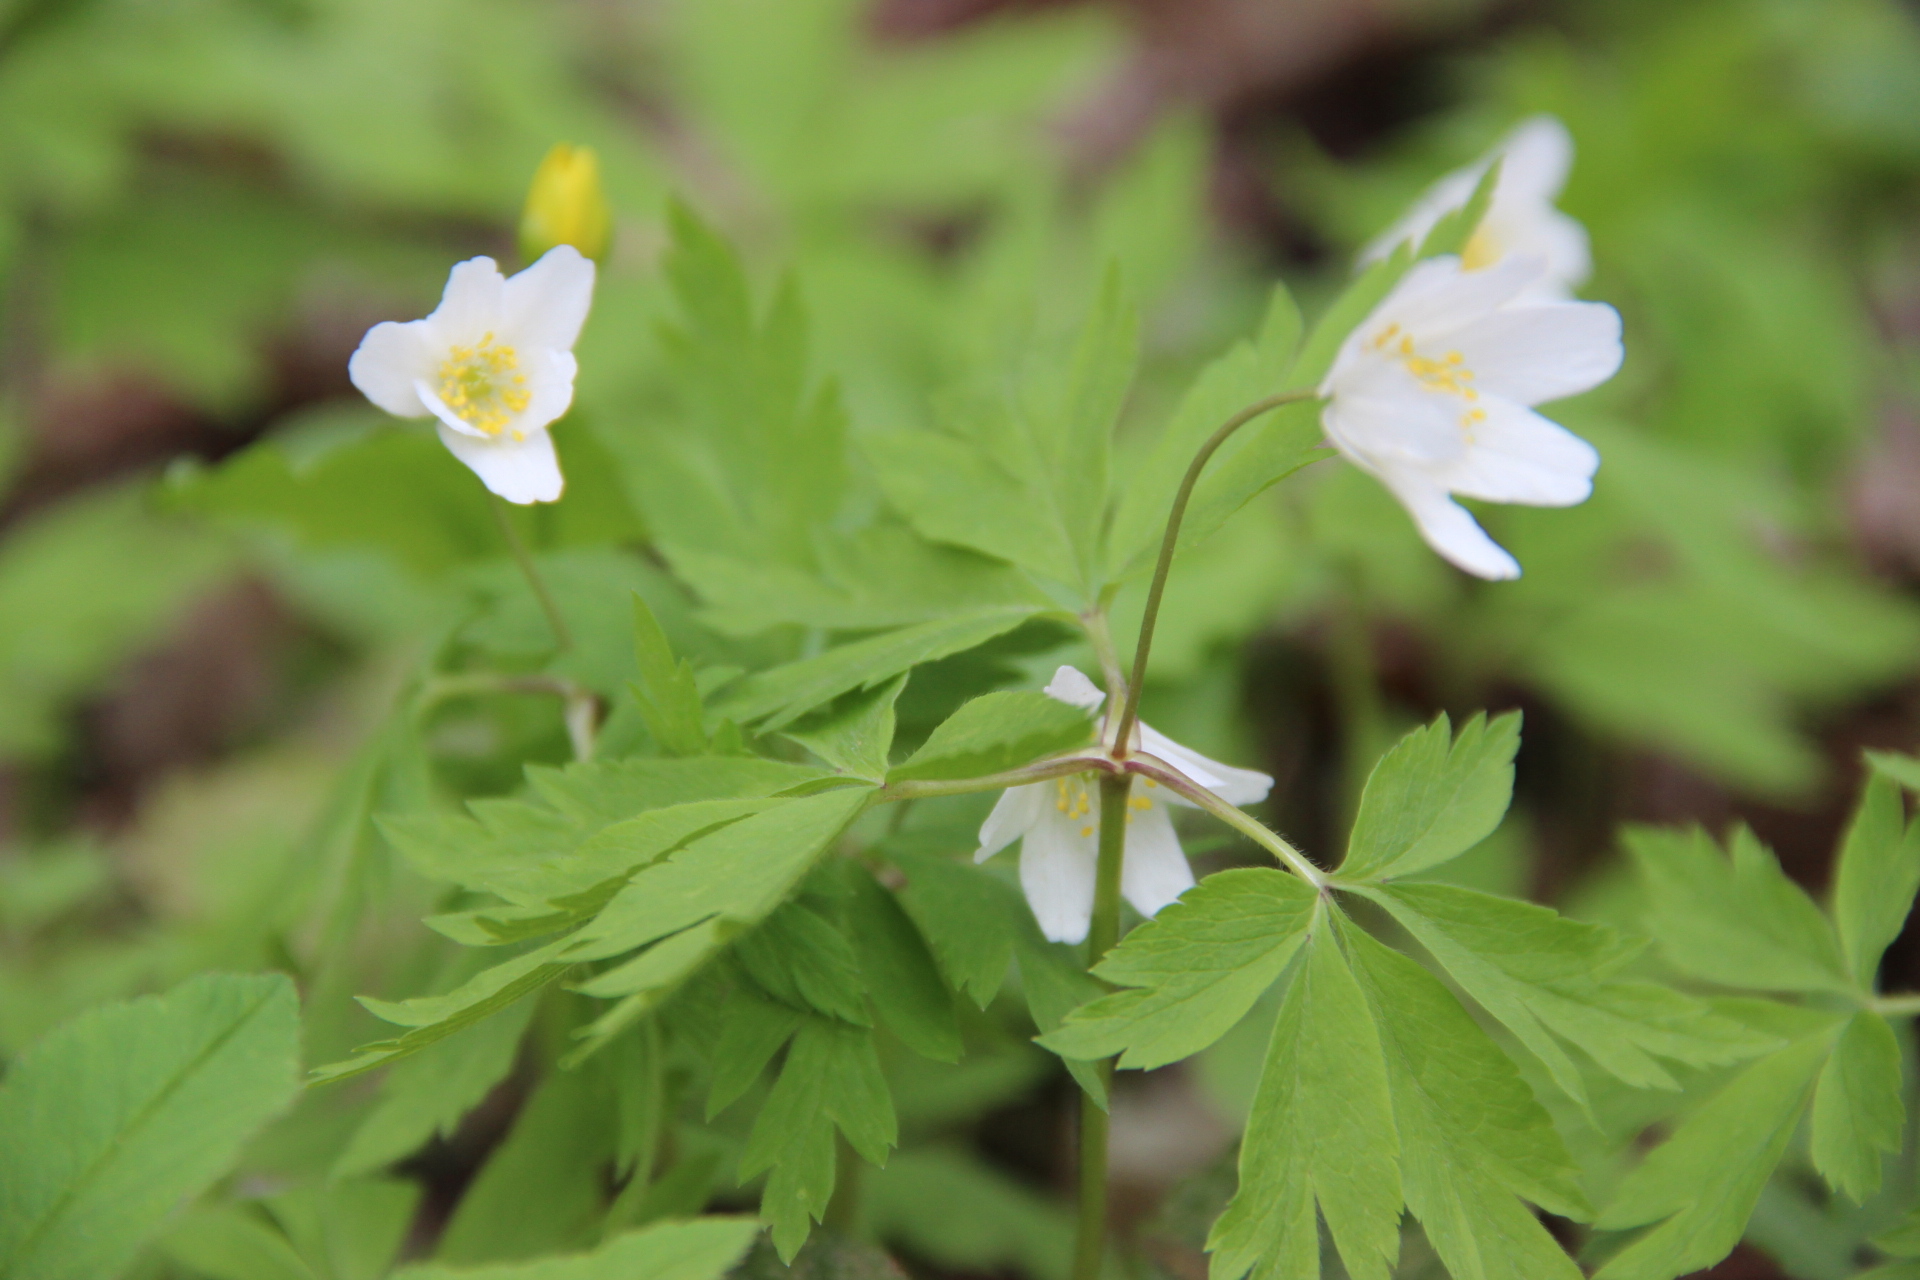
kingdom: Plantae
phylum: Tracheophyta
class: Magnoliopsida
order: Ranunculales
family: Ranunculaceae
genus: Anemone
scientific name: Anemone nemorosa
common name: Wood anemone
